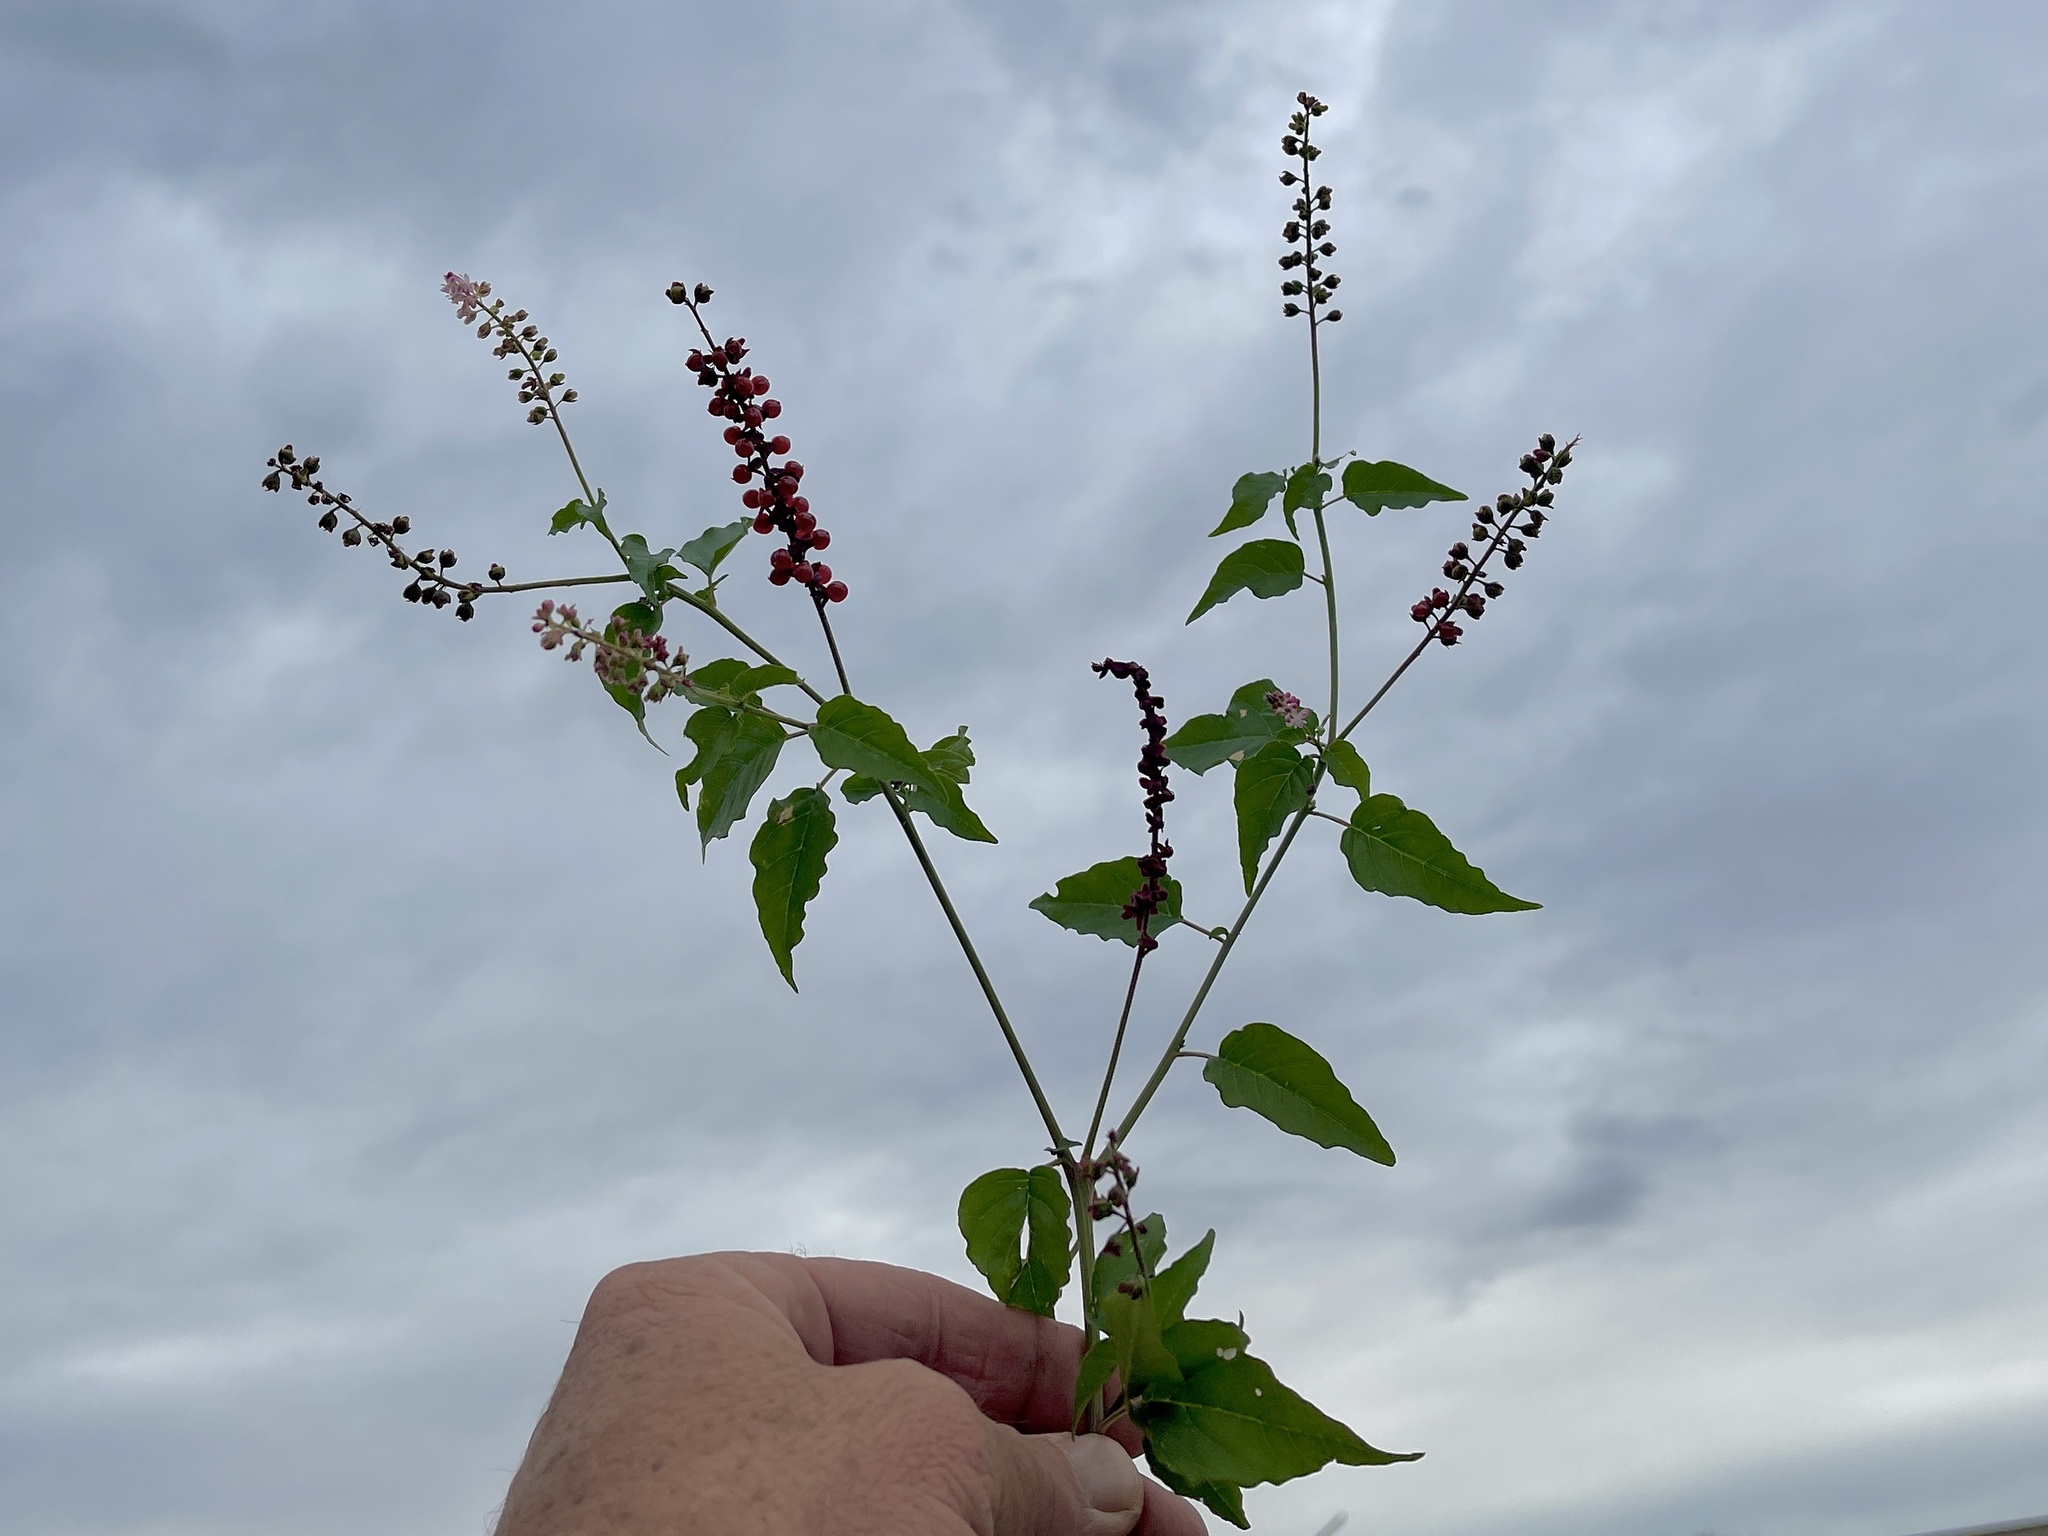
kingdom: Plantae
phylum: Tracheophyta
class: Magnoliopsida
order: Caryophyllales
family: Phytolaccaceae
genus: Rivina
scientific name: Rivina humilis
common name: Rougeplant
